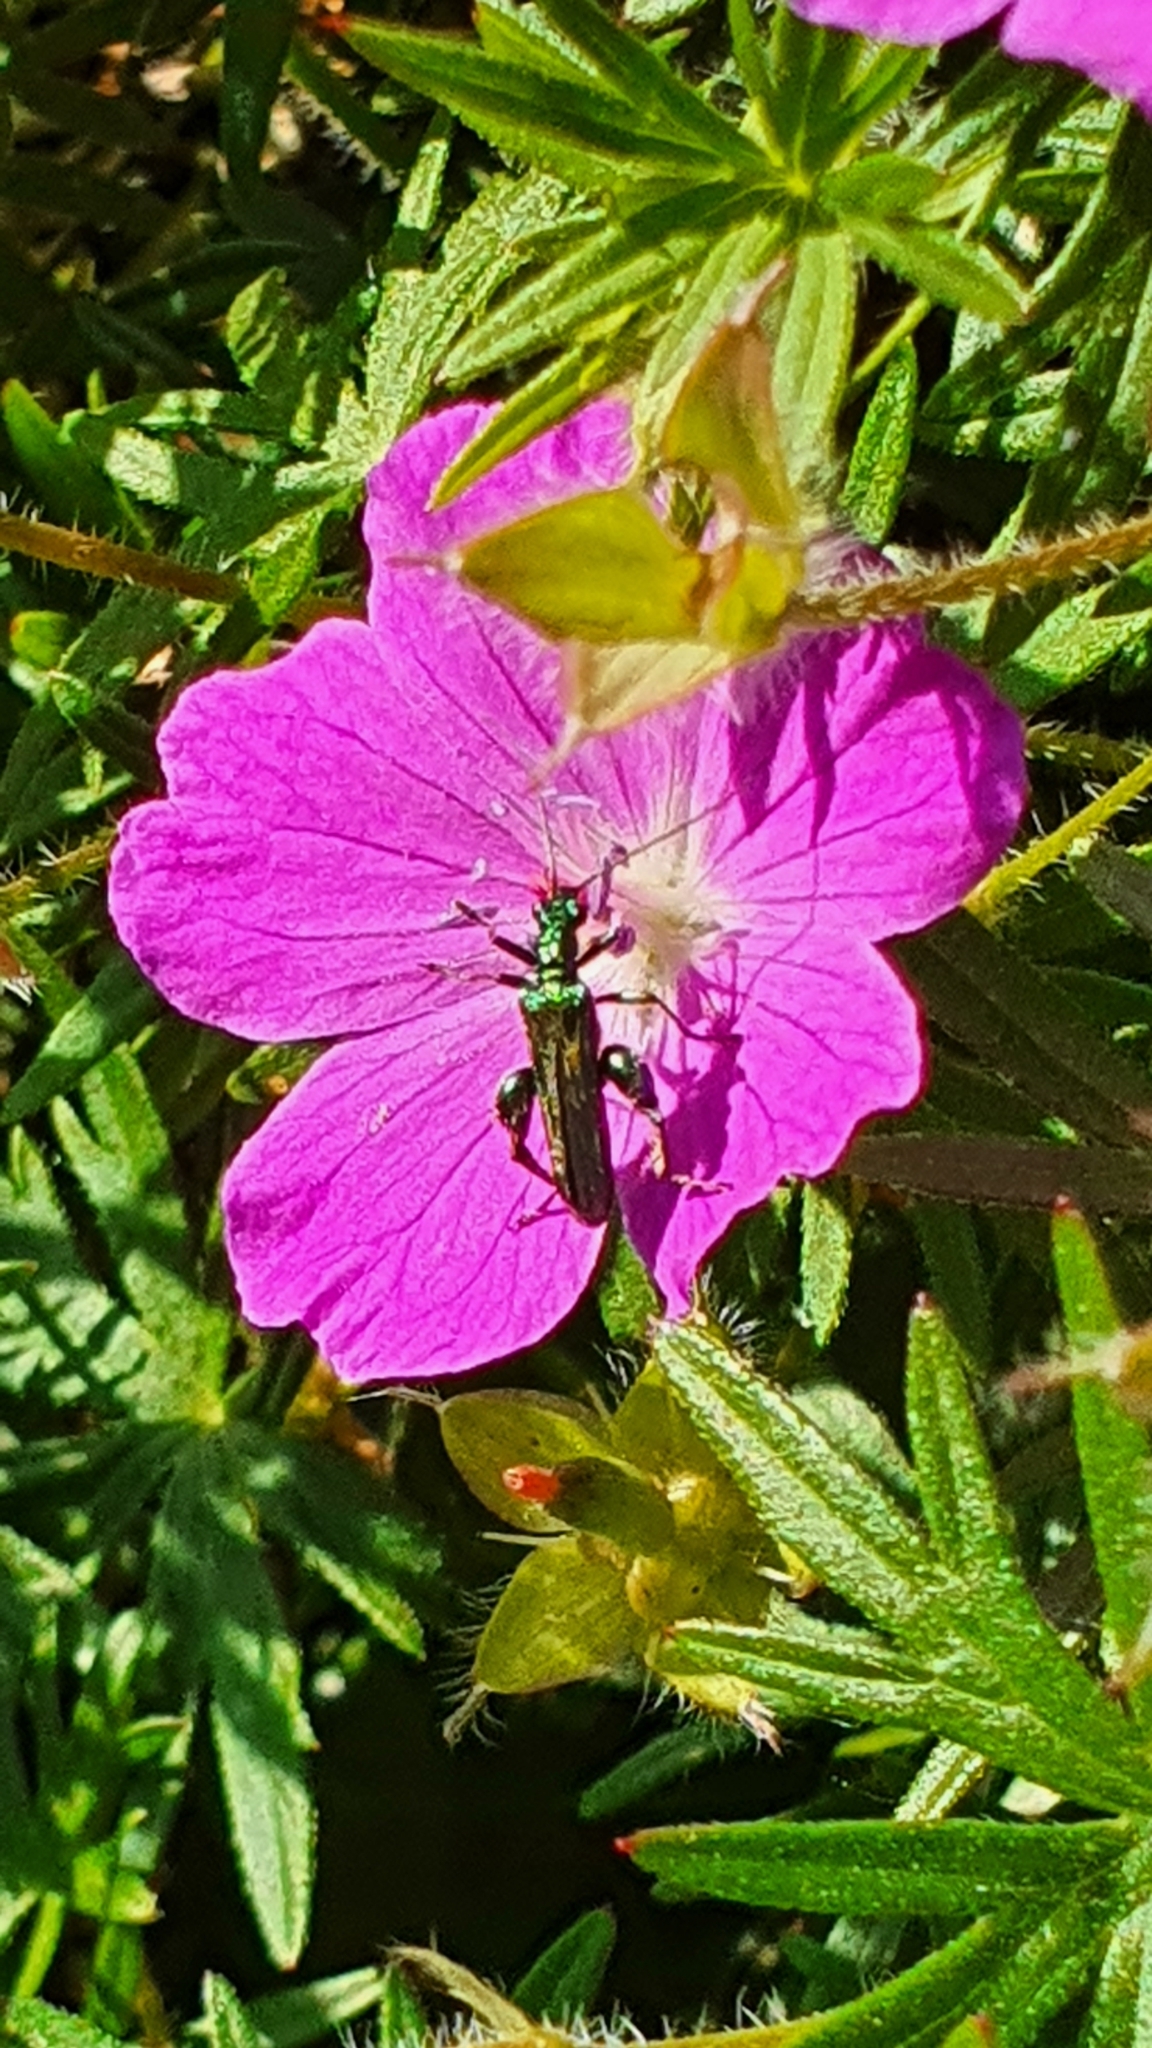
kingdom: Animalia
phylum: Arthropoda
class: Insecta
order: Coleoptera
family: Oedemeridae
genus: Oedemera
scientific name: Oedemera nobilis
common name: Swollen-thighed beetle
